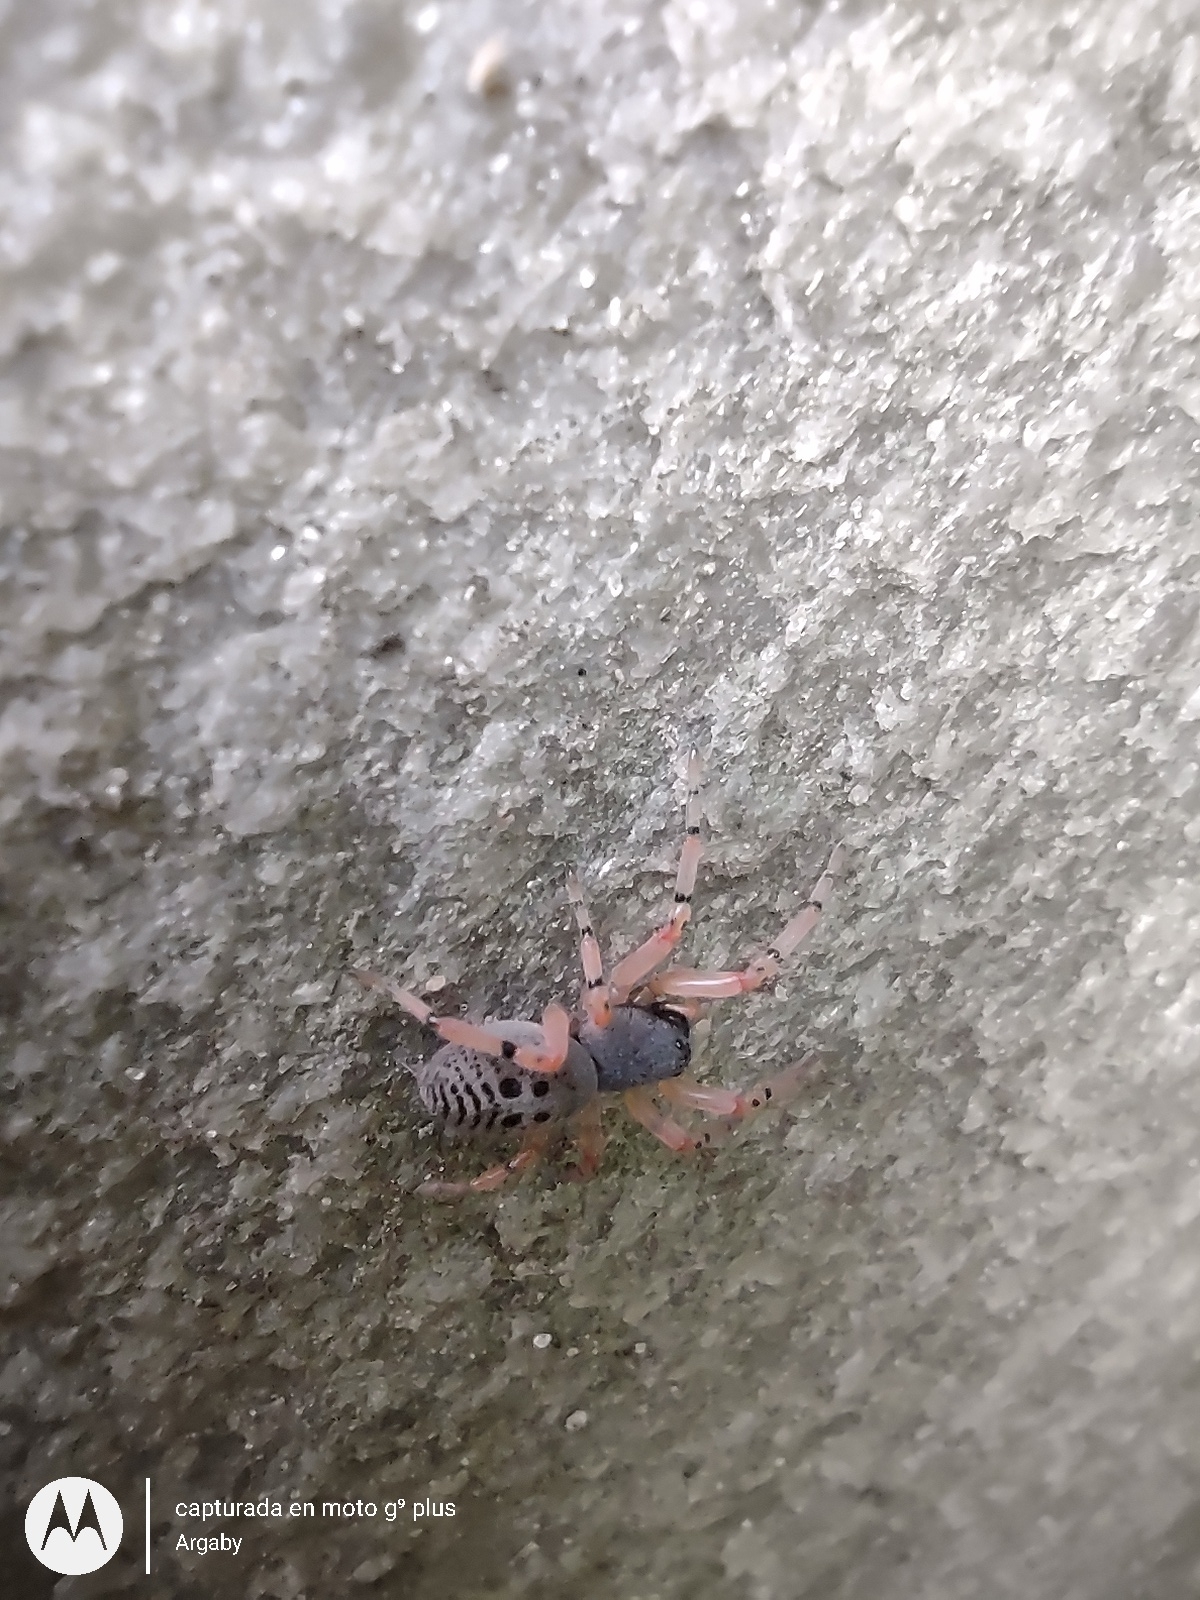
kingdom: Animalia
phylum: Arthropoda
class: Arachnida
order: Araneae
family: Trachelidae
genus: Trachelopachys
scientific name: Trachelopachys
